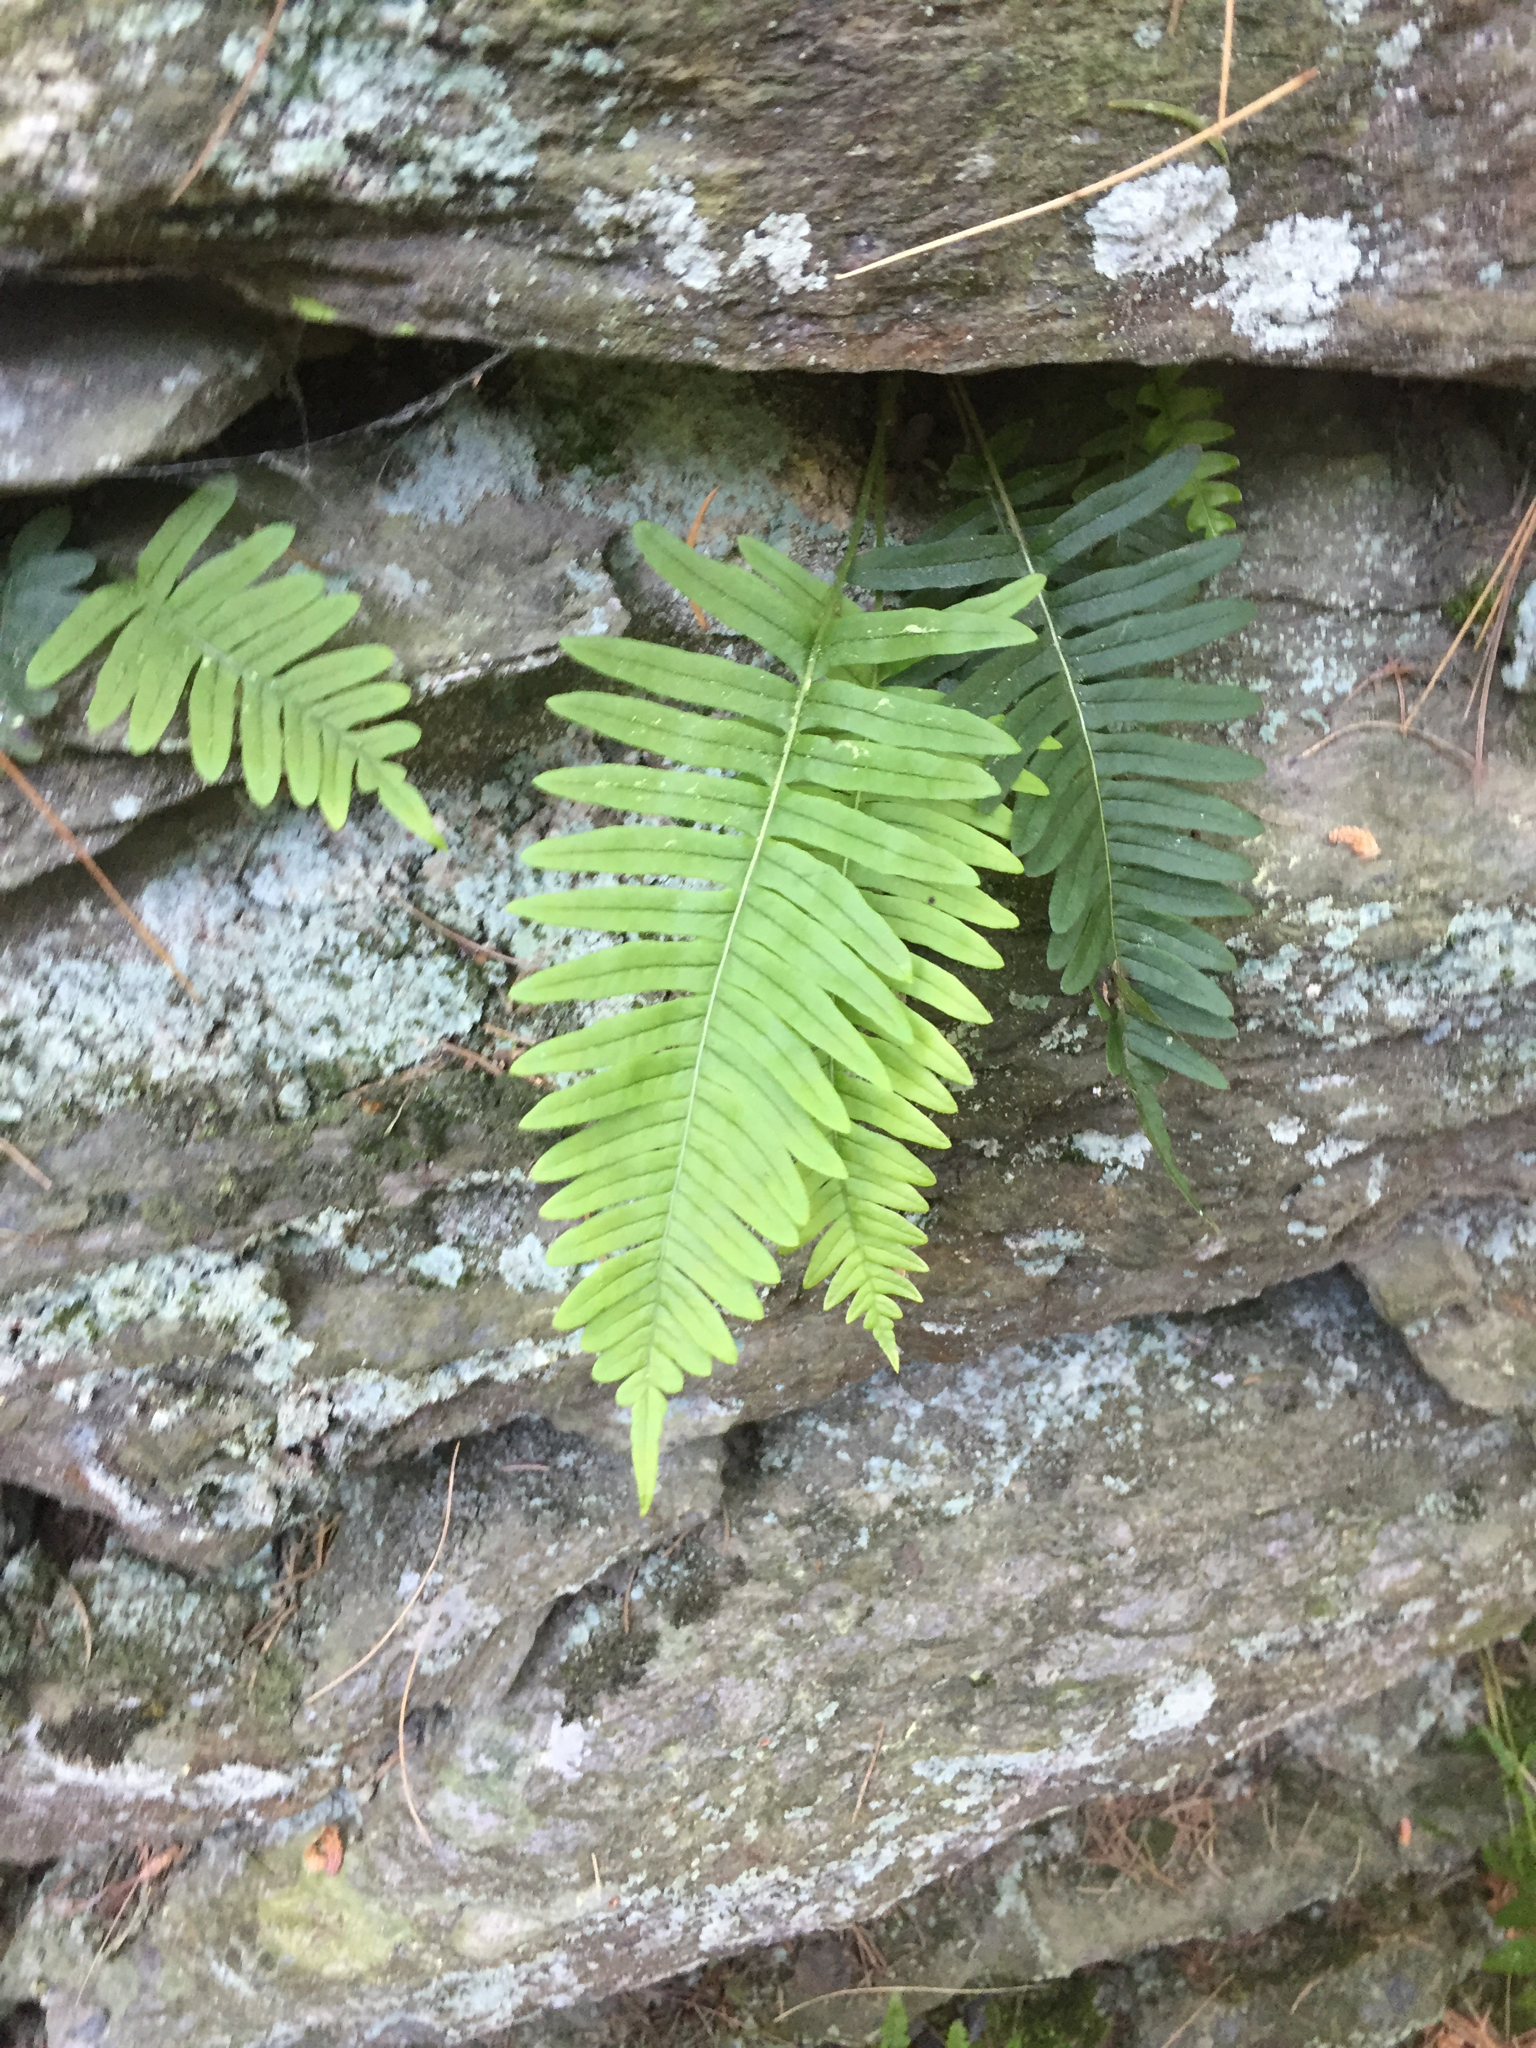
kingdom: Plantae
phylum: Tracheophyta
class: Polypodiopsida
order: Polypodiales
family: Polypodiaceae
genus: Polypodium
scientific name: Polypodium virginianum
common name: American wall fern
